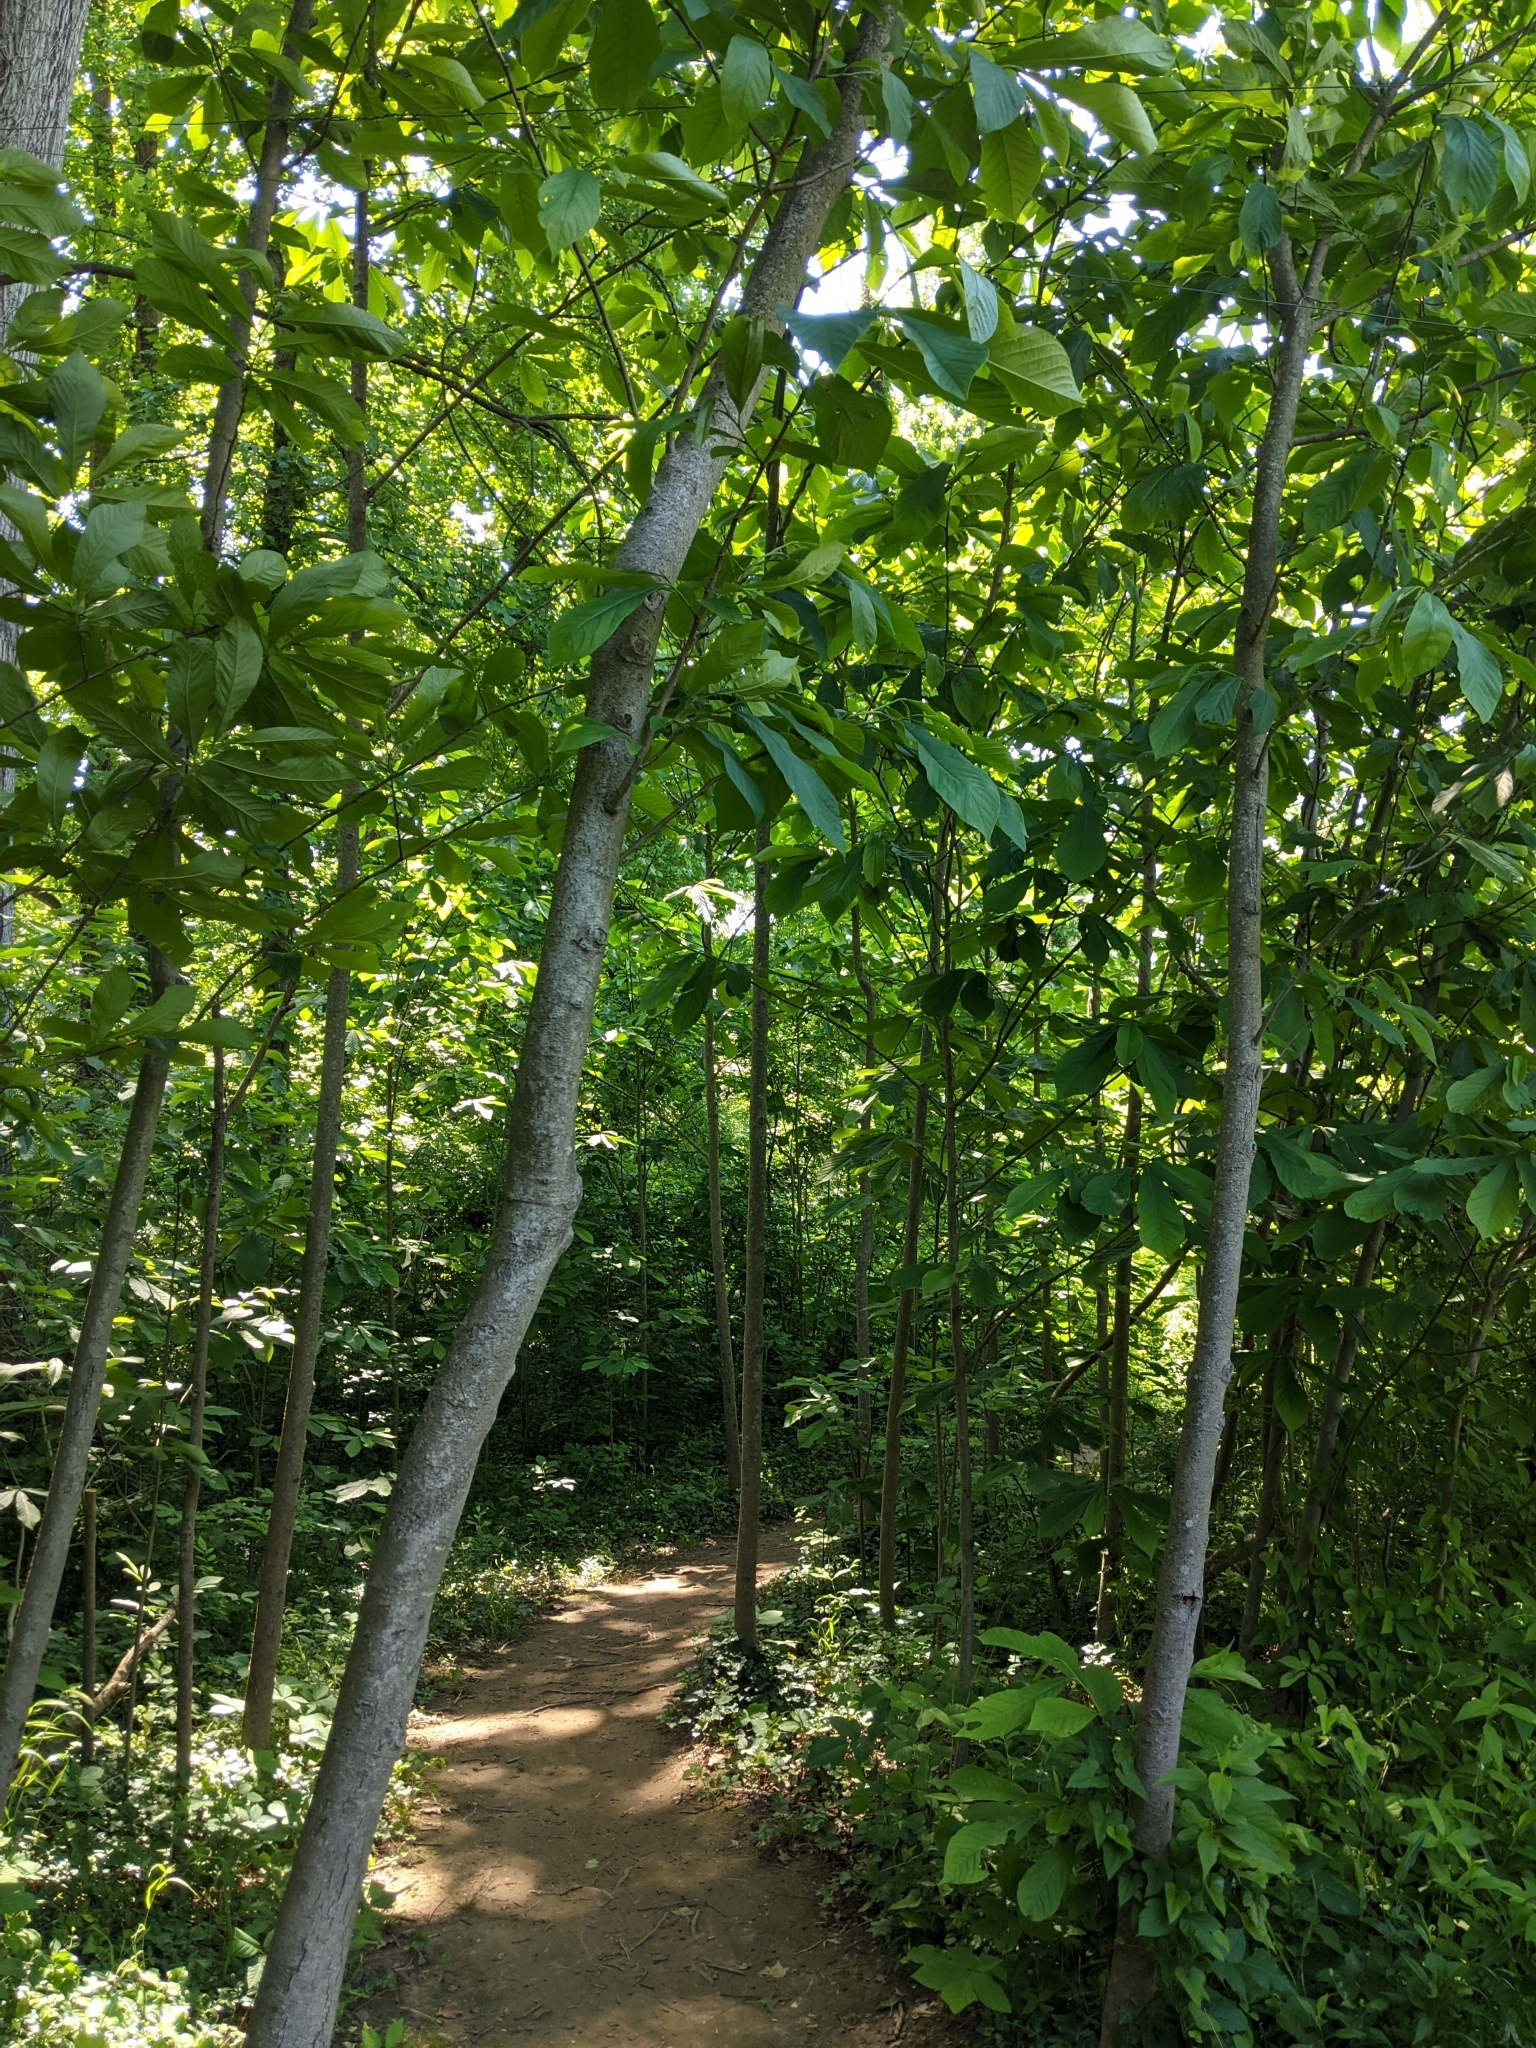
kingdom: Plantae
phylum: Tracheophyta
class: Magnoliopsida
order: Magnoliales
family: Annonaceae
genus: Asimina
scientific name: Asimina triloba
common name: Dog-banana
